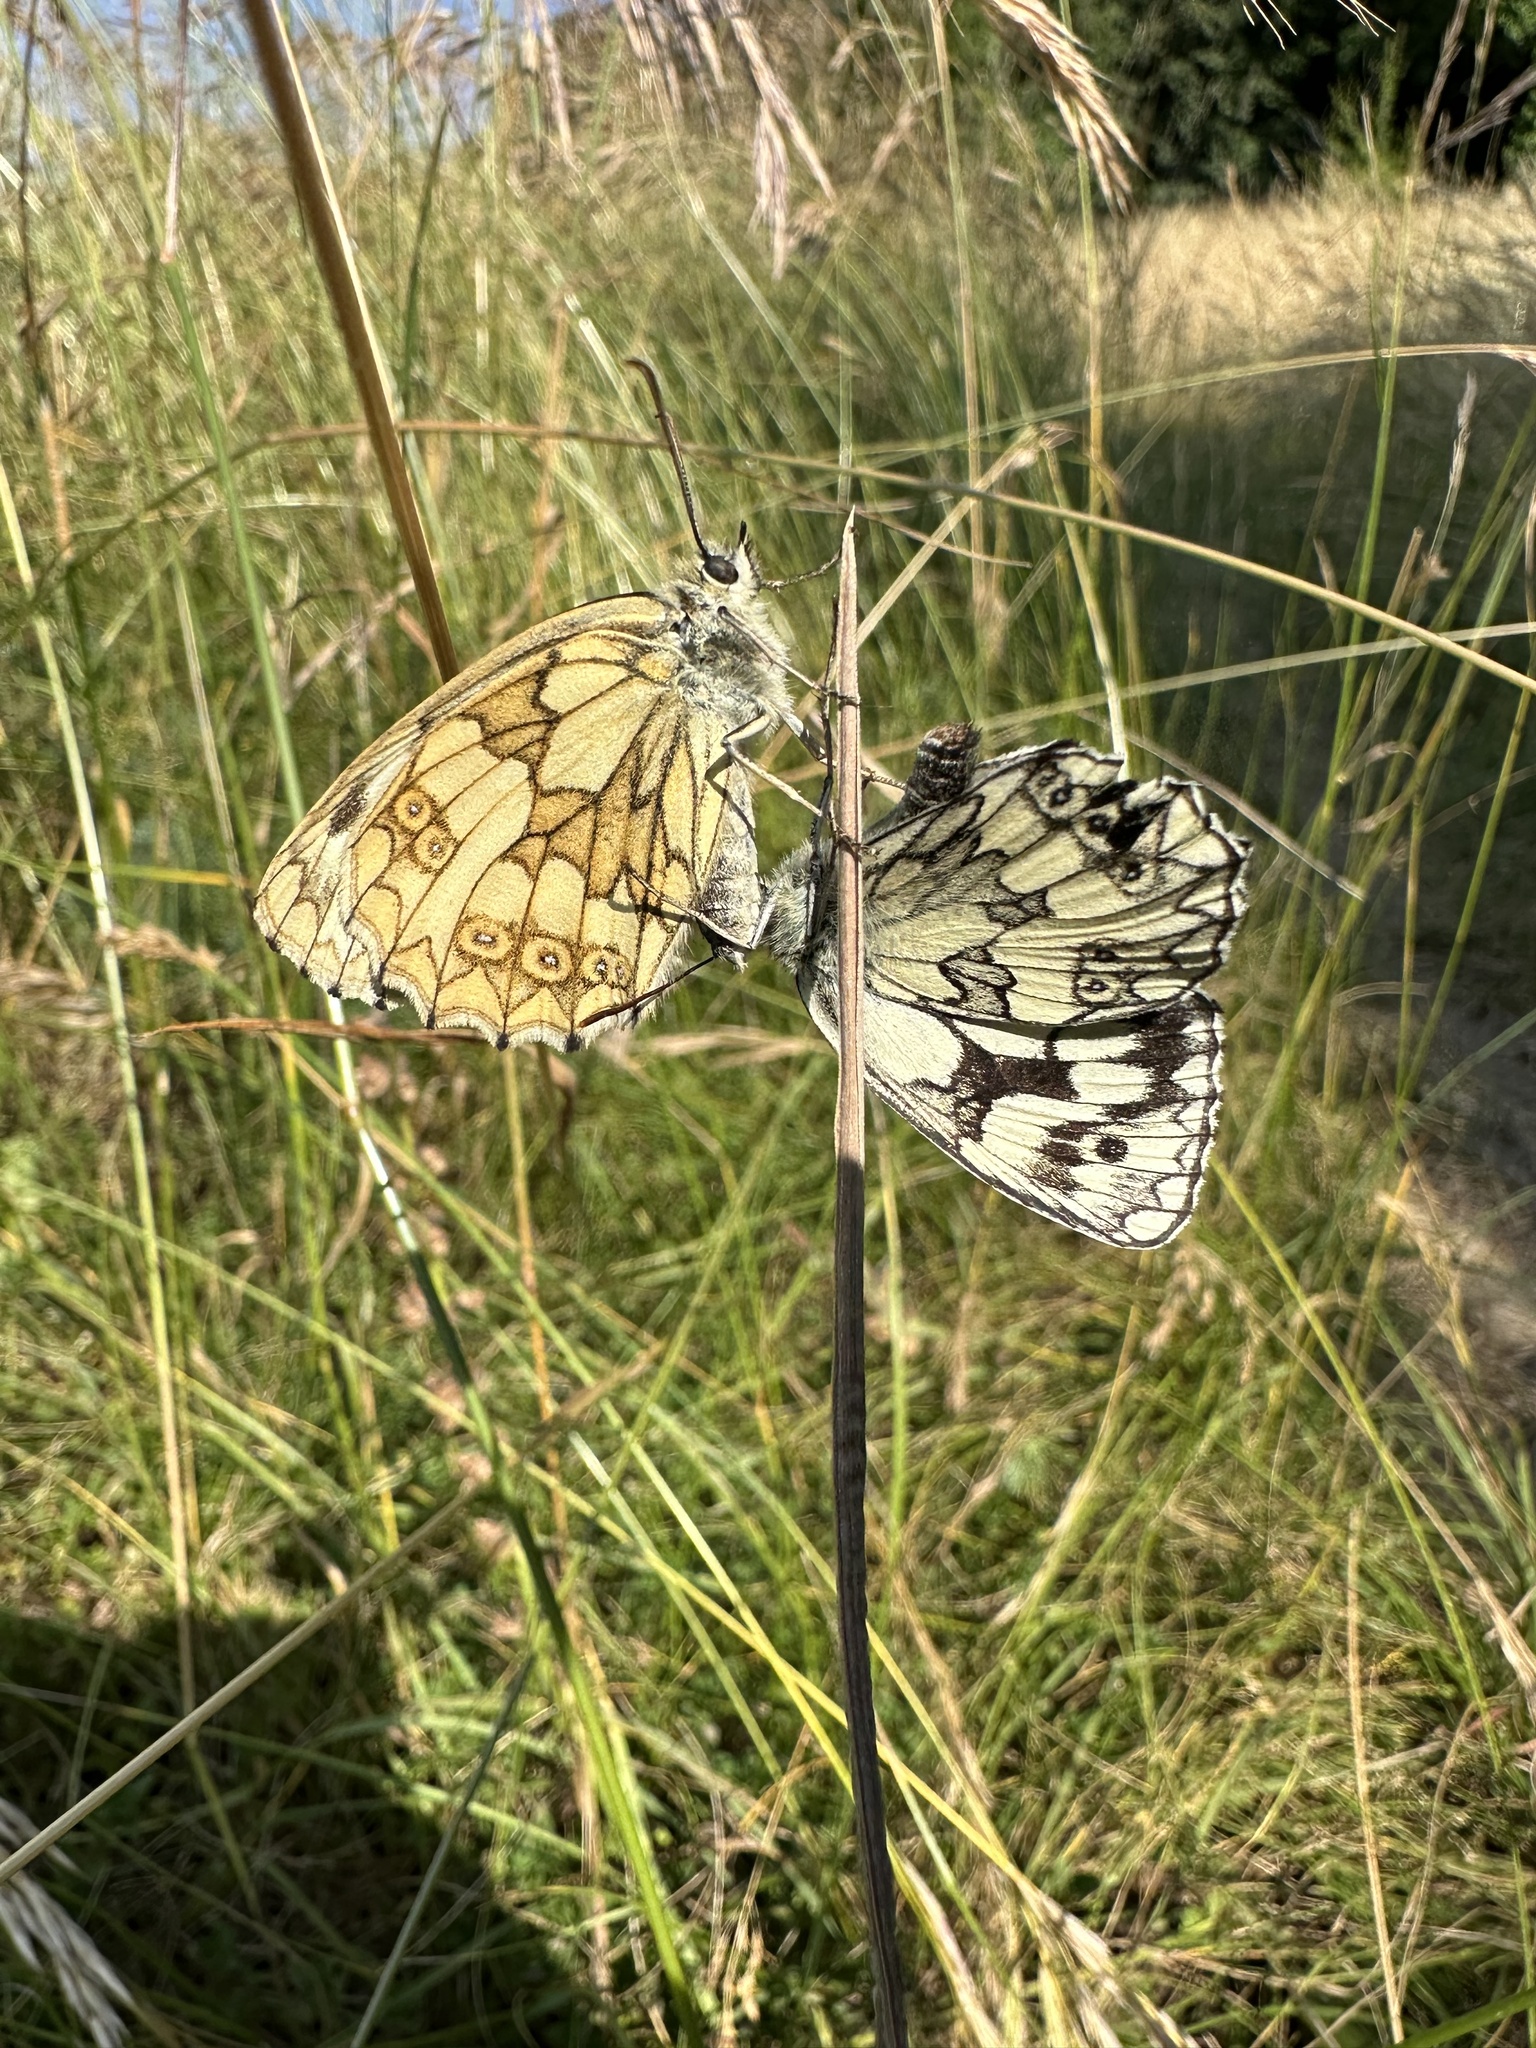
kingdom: Animalia
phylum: Arthropoda
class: Insecta
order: Lepidoptera
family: Nymphalidae
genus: Melanargia
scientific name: Melanargia galathea
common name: Marbled white
